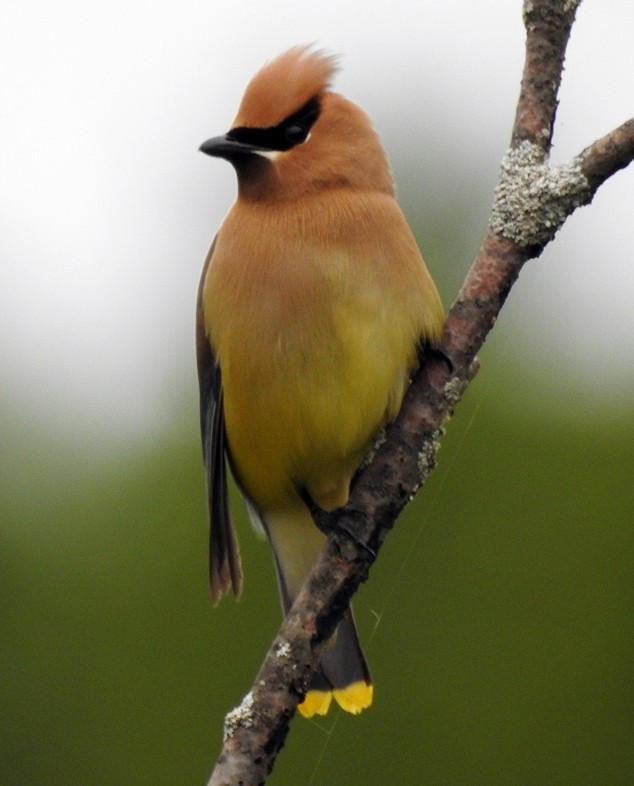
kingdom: Animalia
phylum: Chordata
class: Aves
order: Passeriformes
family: Bombycillidae
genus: Bombycilla
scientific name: Bombycilla cedrorum
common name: Cedar waxwing
